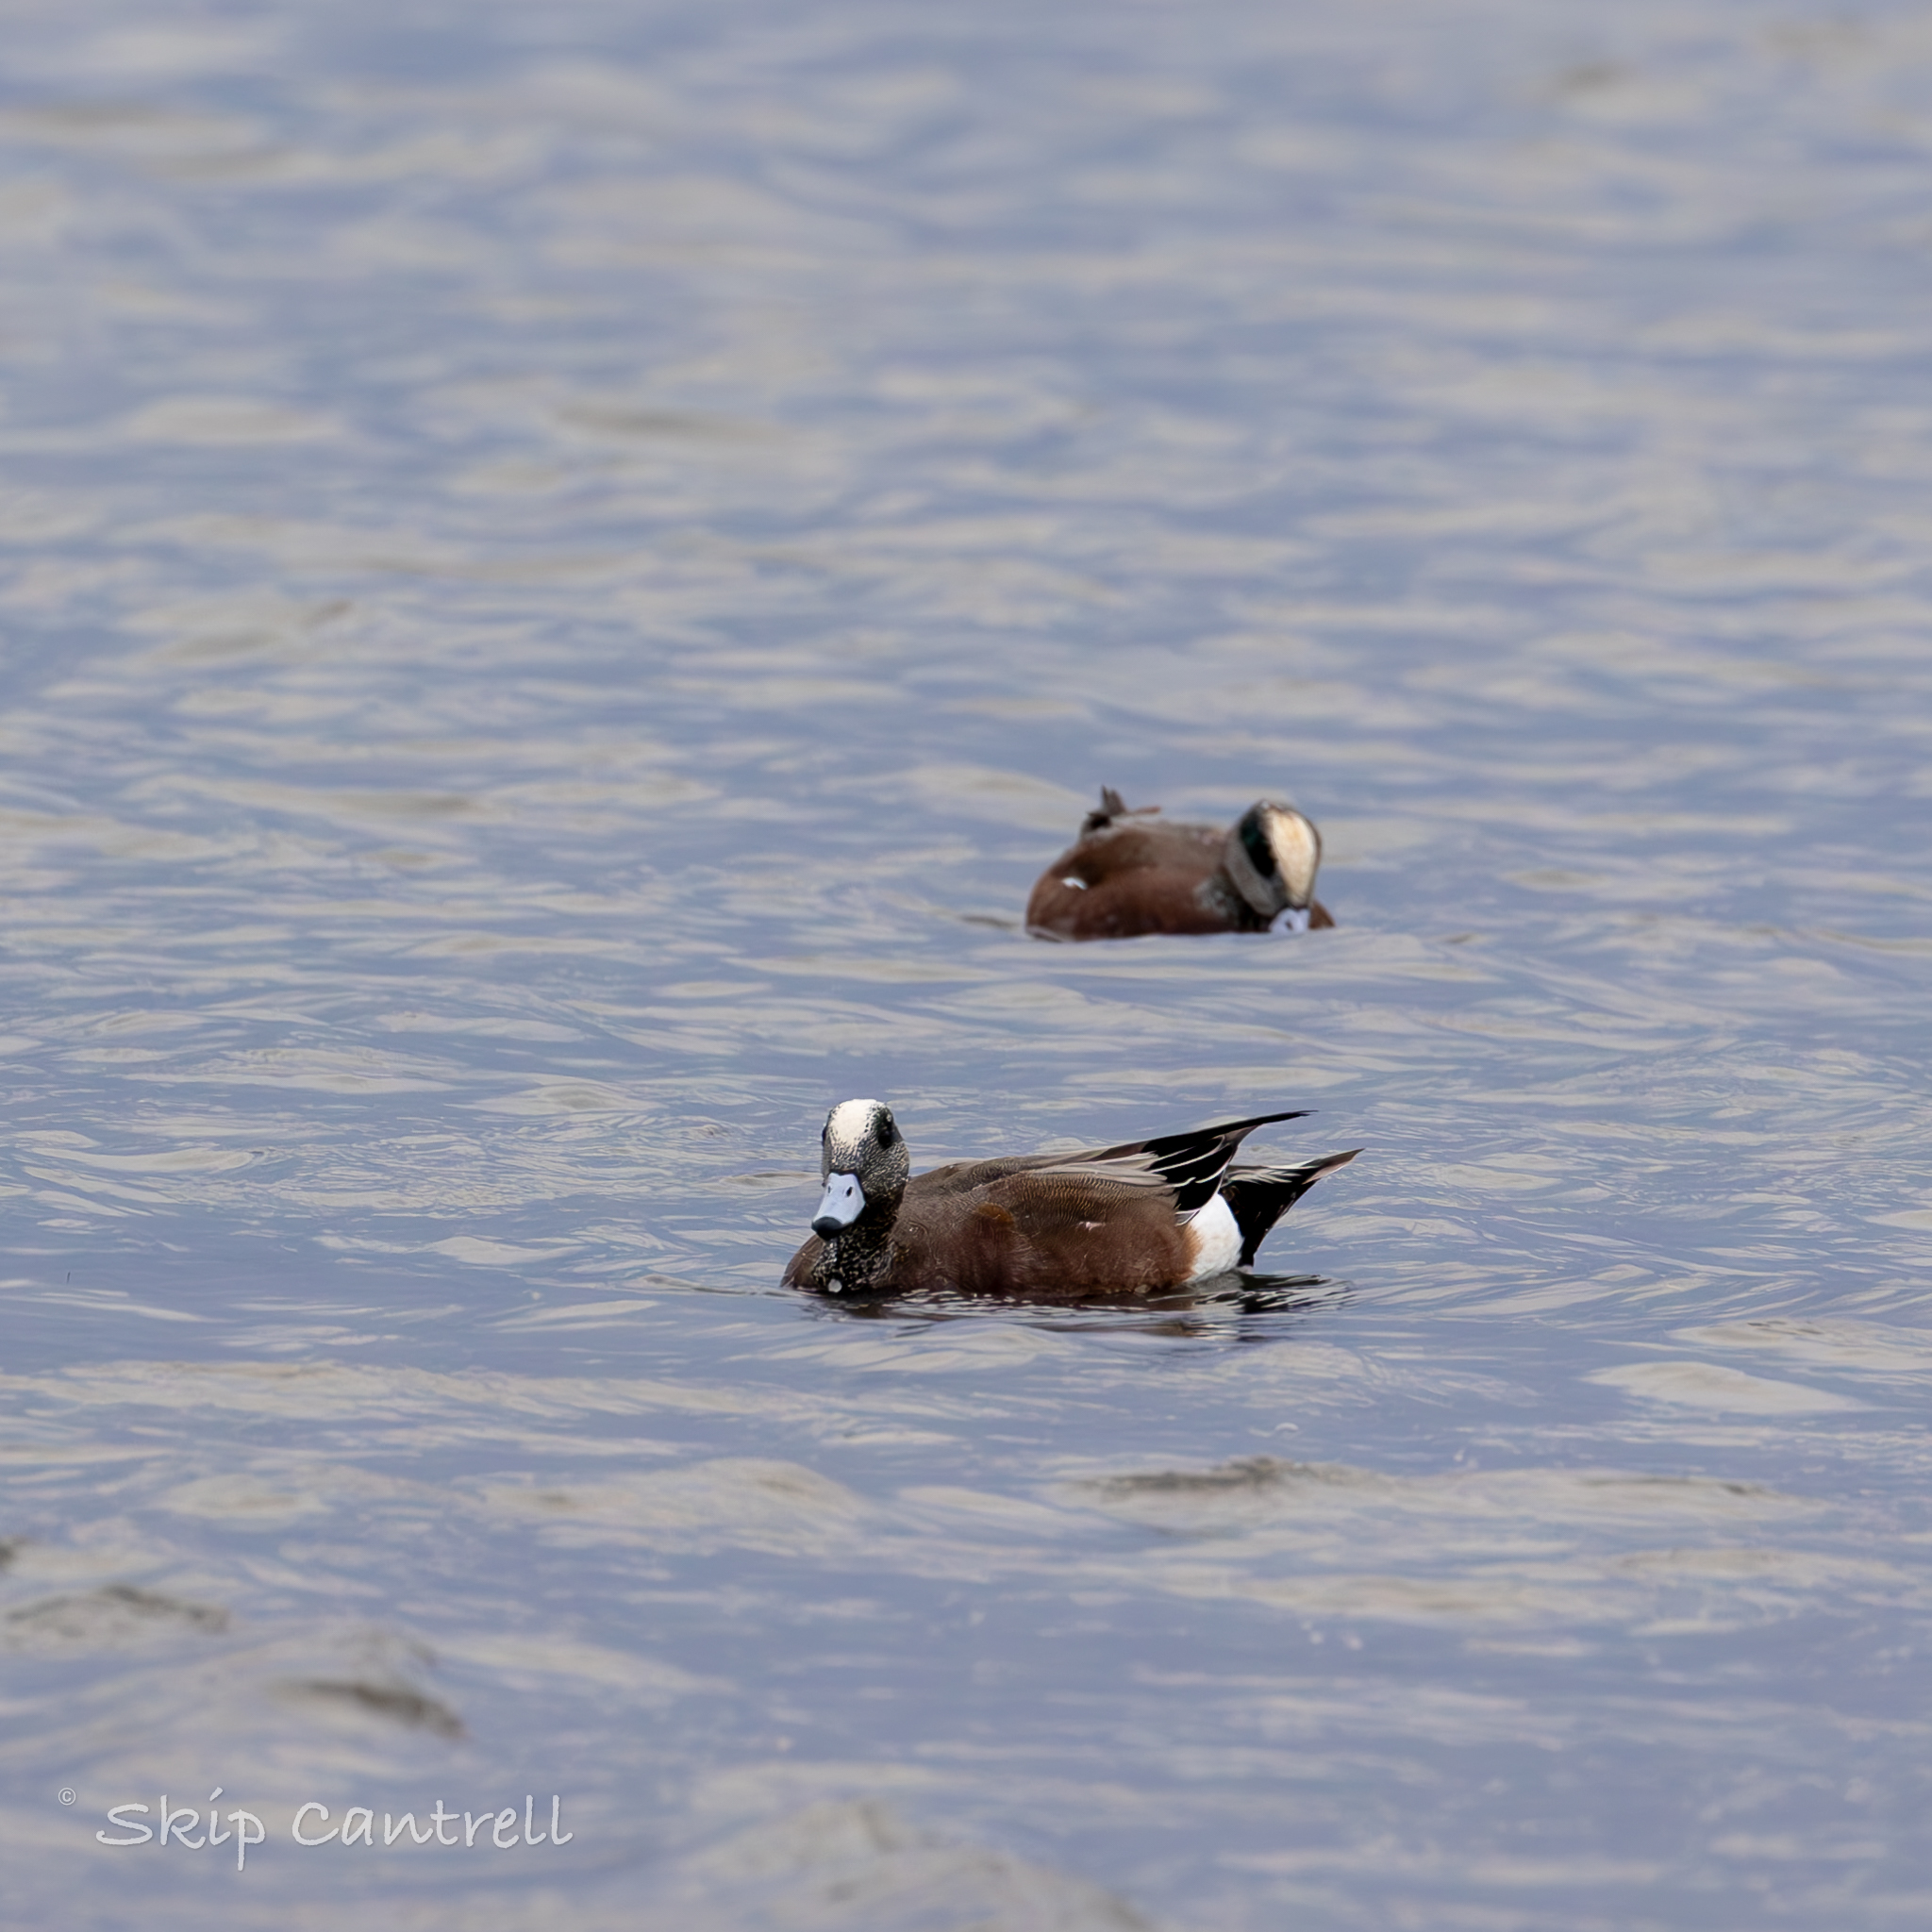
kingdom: Animalia
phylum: Chordata
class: Aves
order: Anseriformes
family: Anatidae
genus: Mareca
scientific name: Mareca americana
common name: American wigeon
